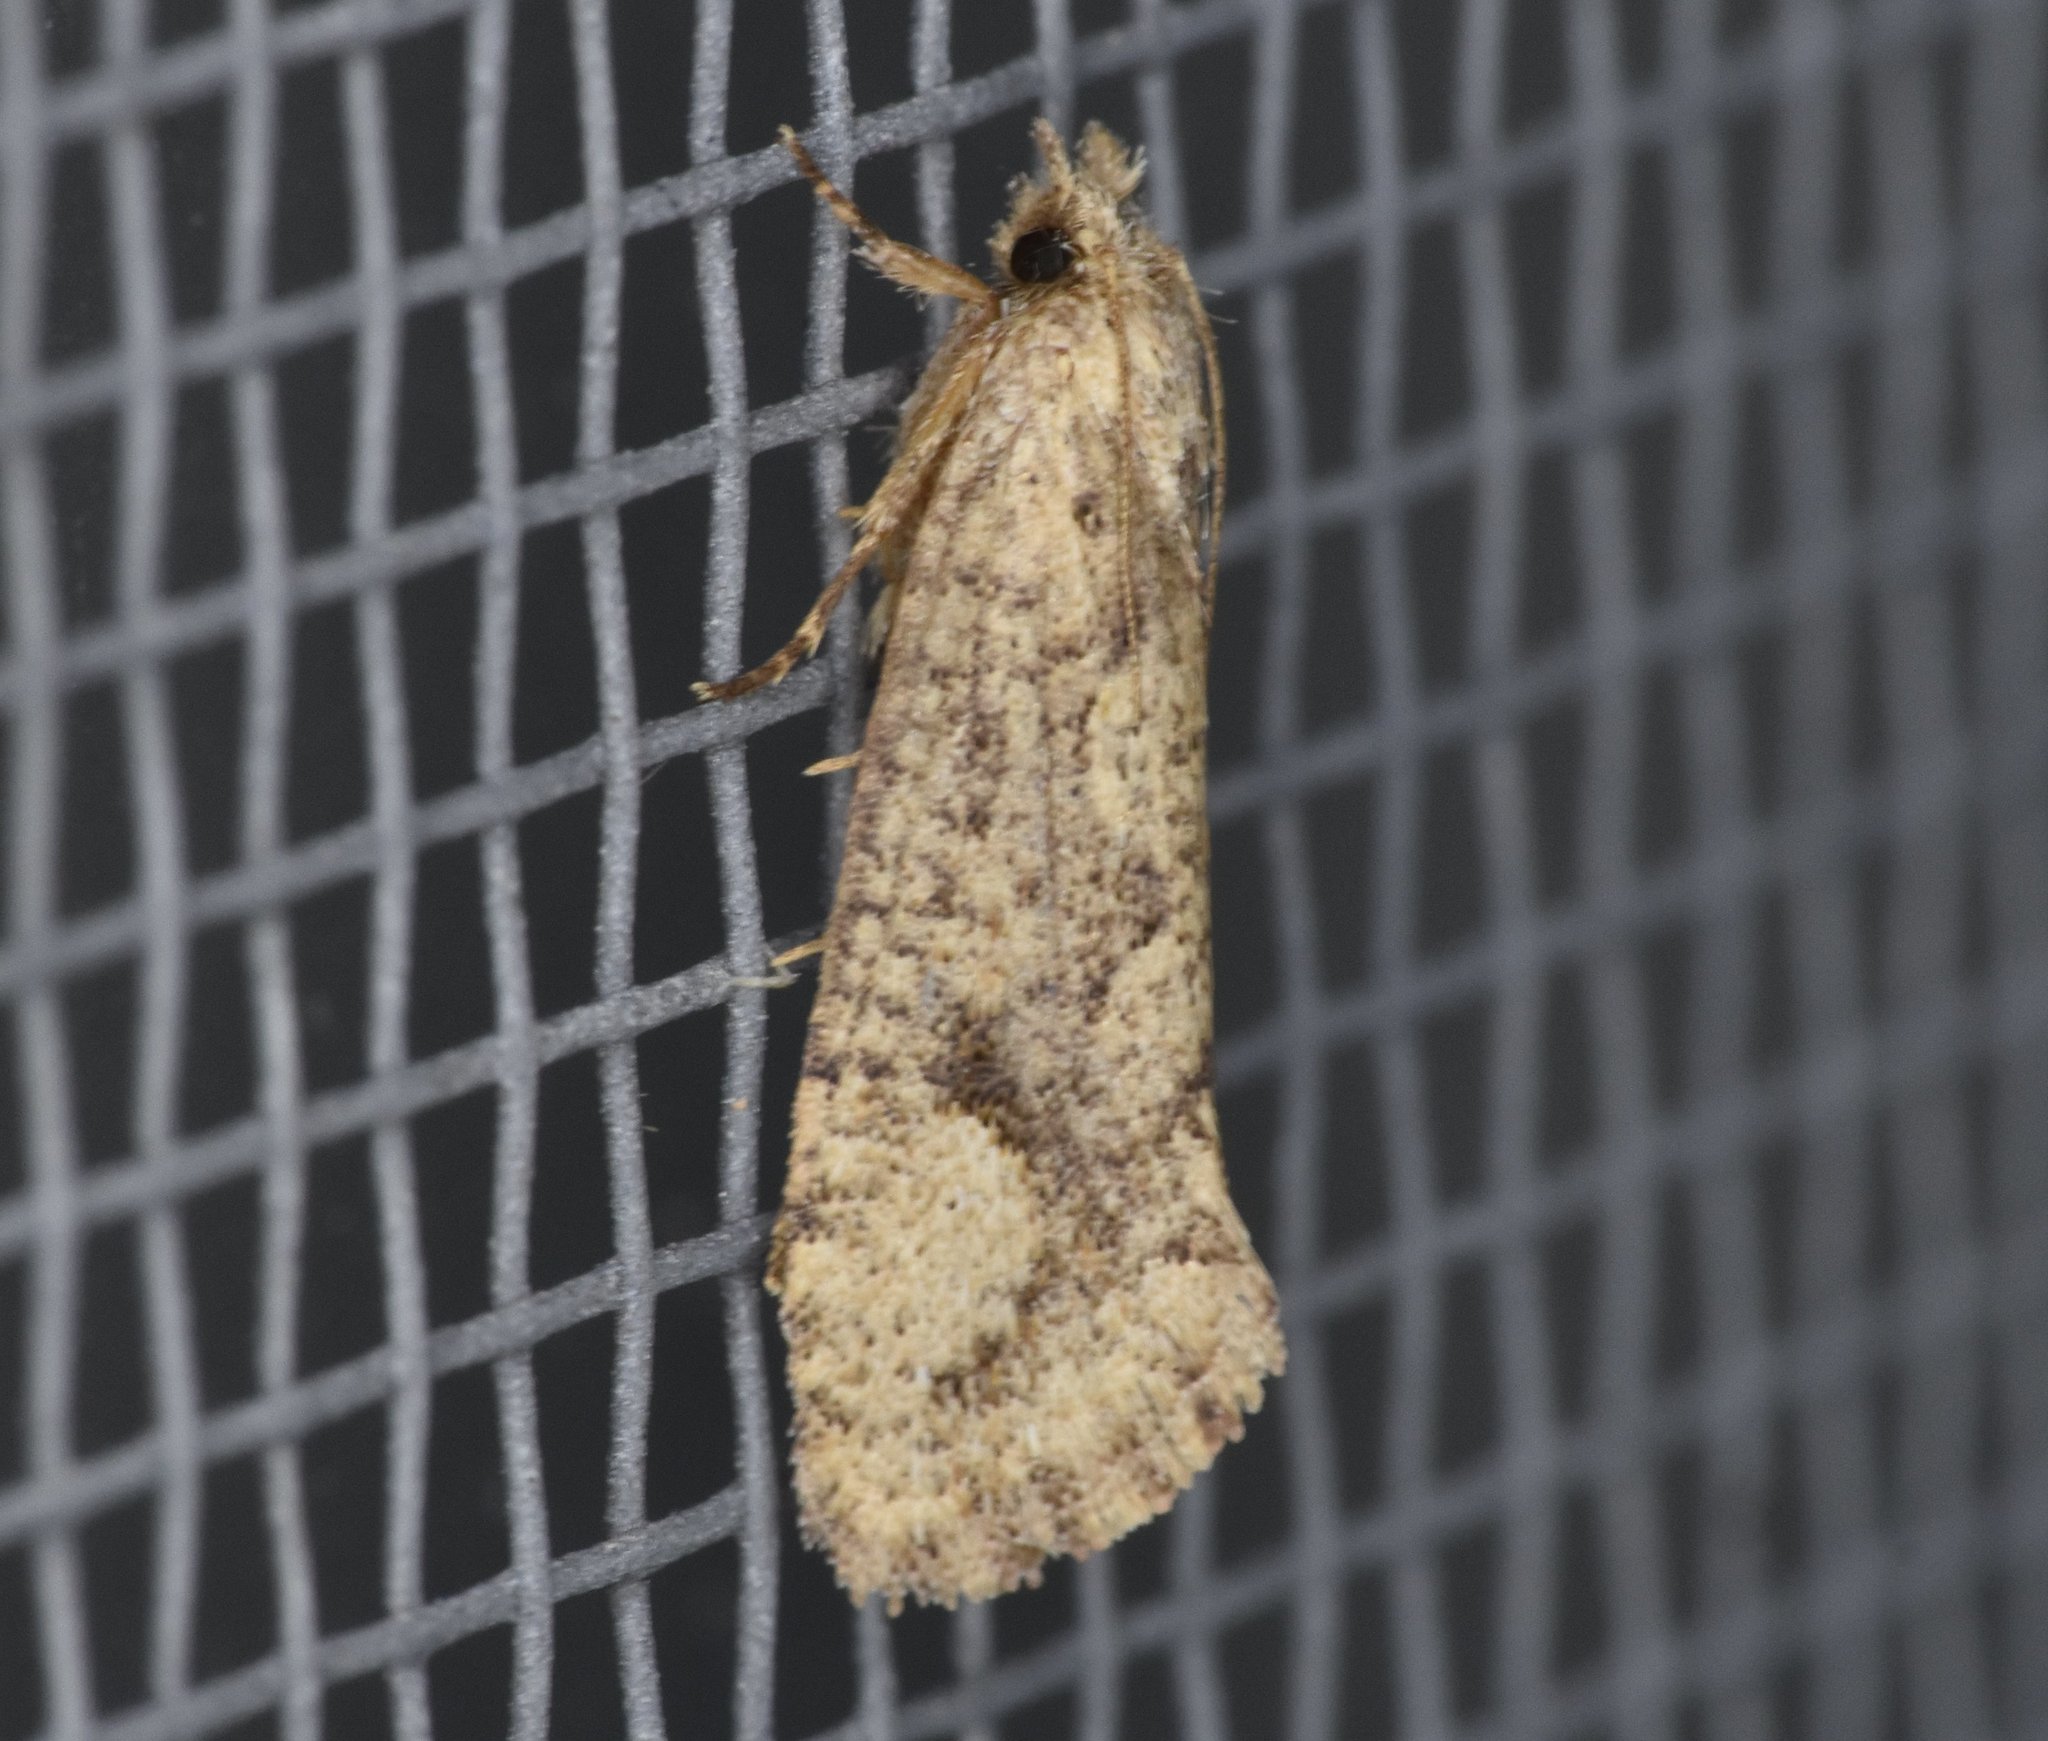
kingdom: Animalia
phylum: Arthropoda
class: Insecta
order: Lepidoptera
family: Tineidae
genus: Acrolophus
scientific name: Acrolophus walsinghami
